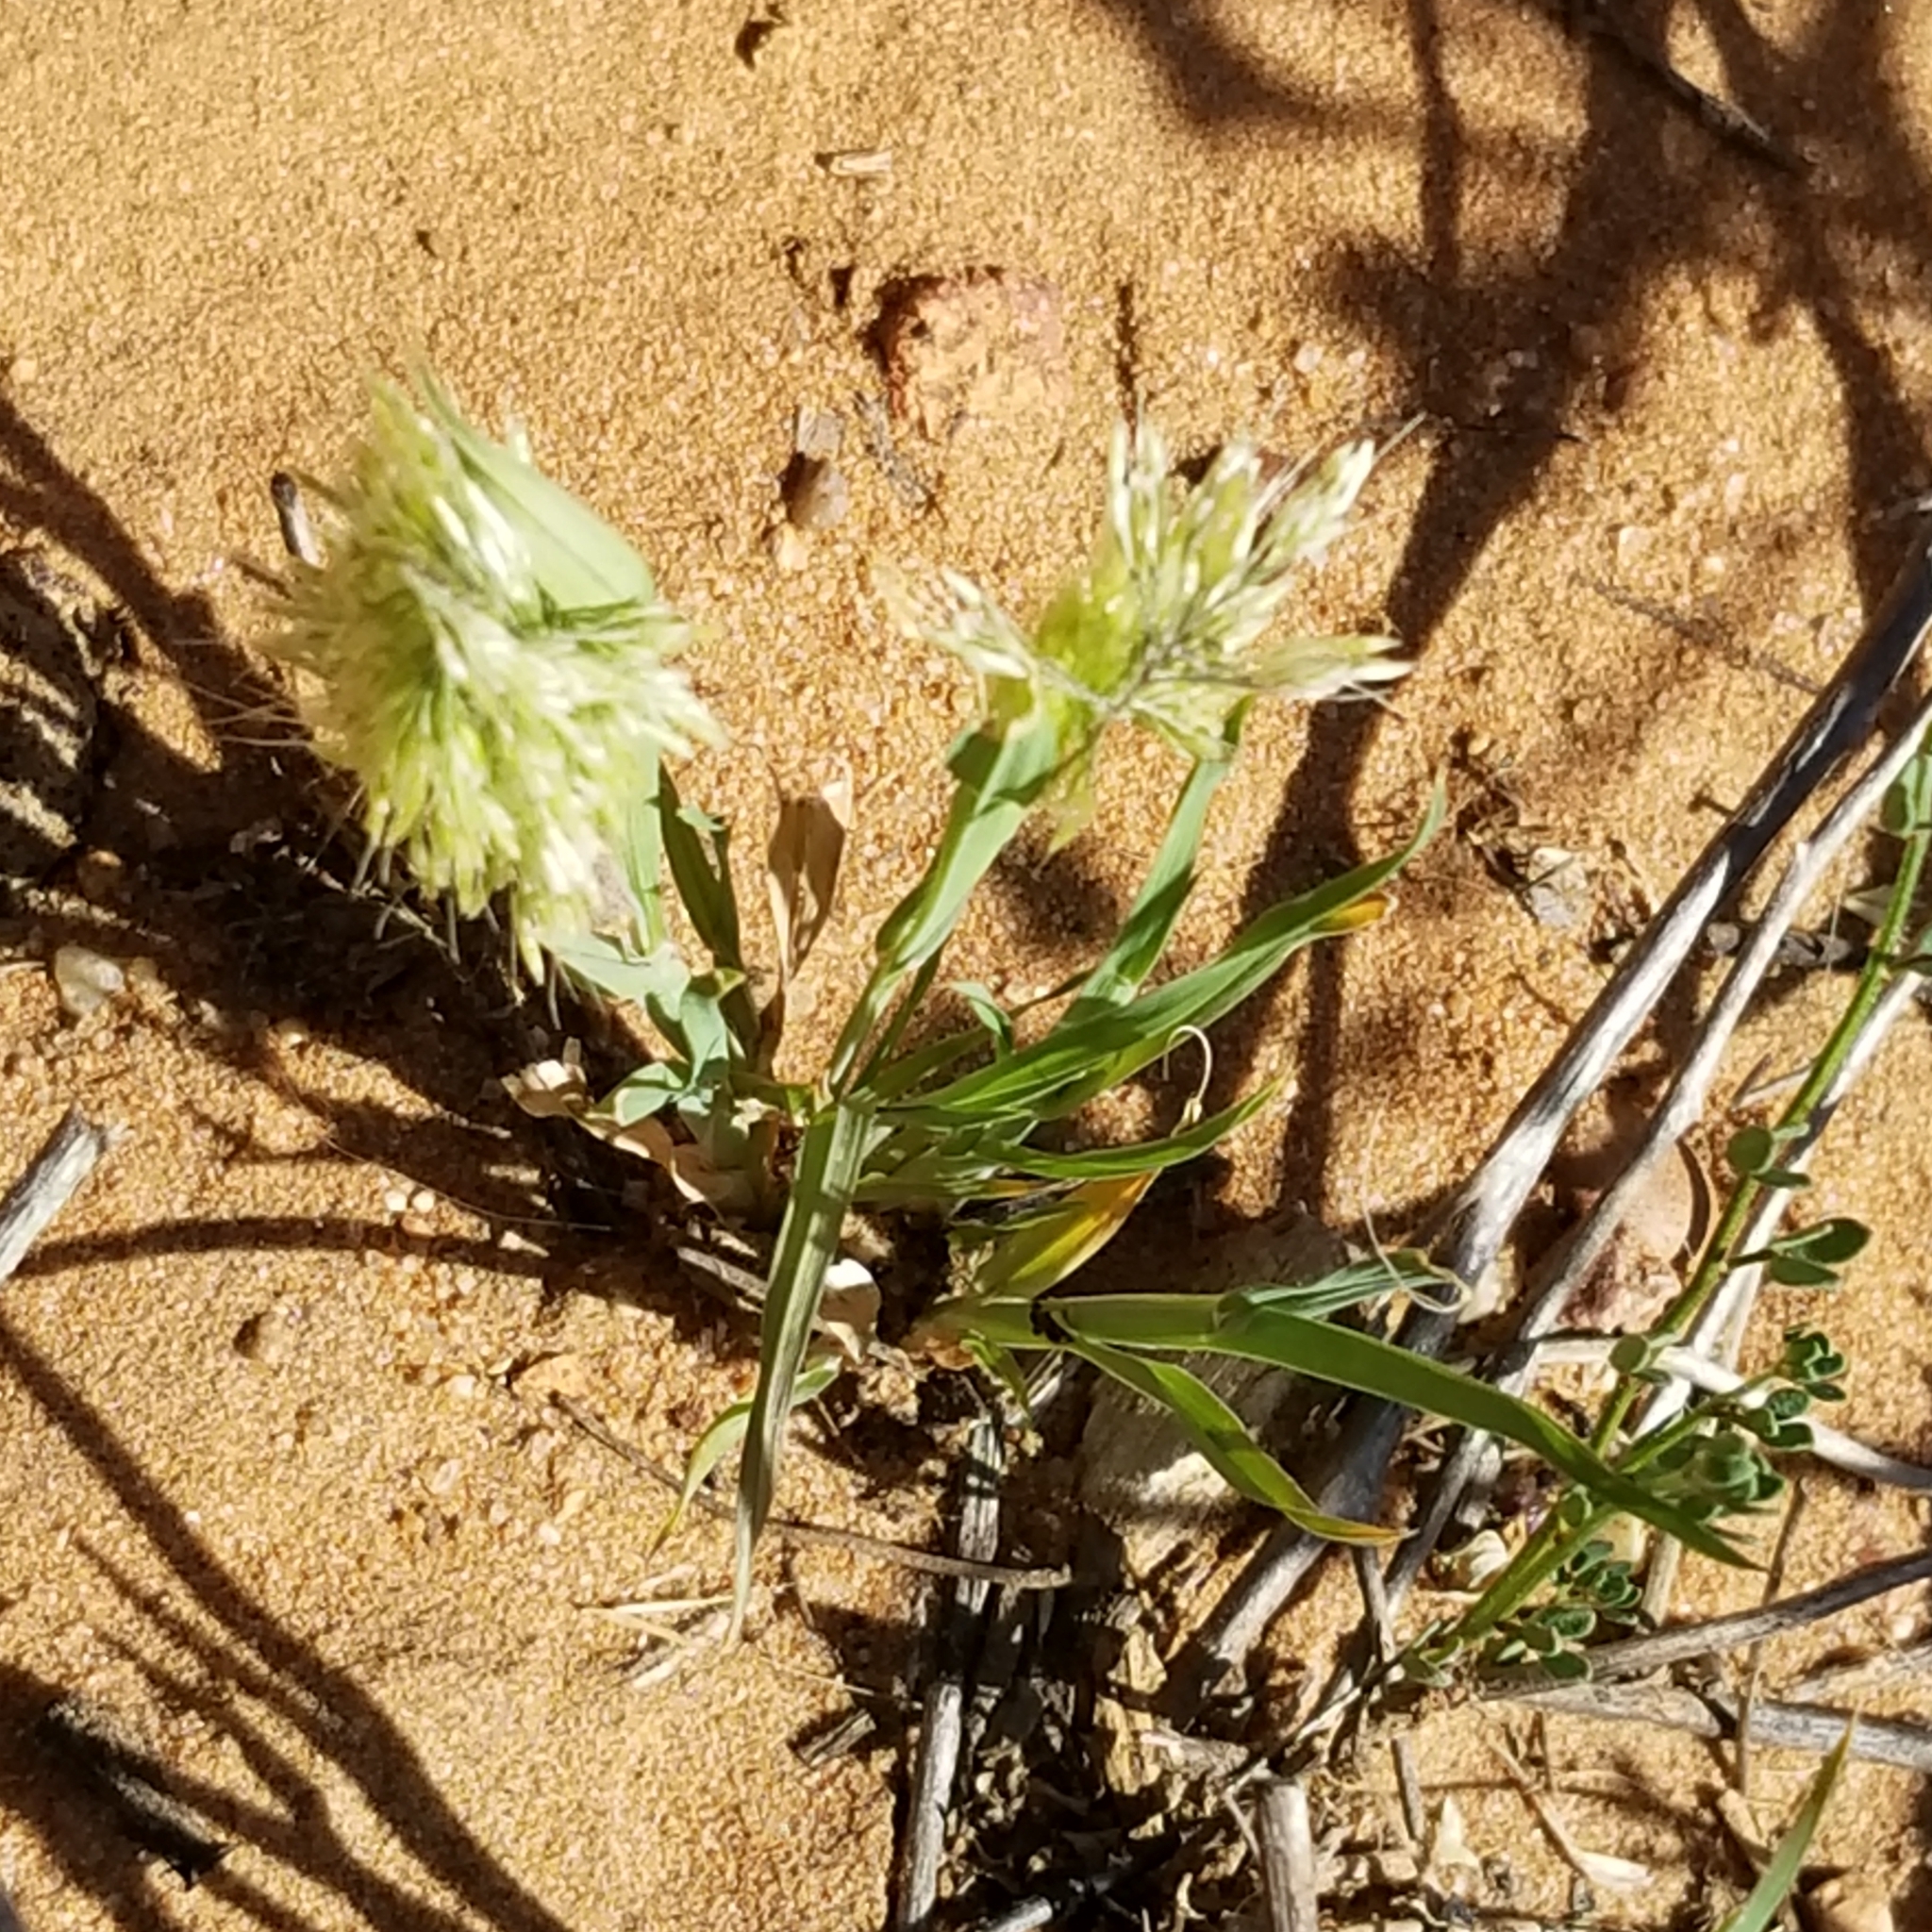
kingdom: Plantae
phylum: Tracheophyta
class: Liliopsida
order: Poales
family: Poaceae
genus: Lamarckia
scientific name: Lamarckia aurea
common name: Golden dog's-tail
